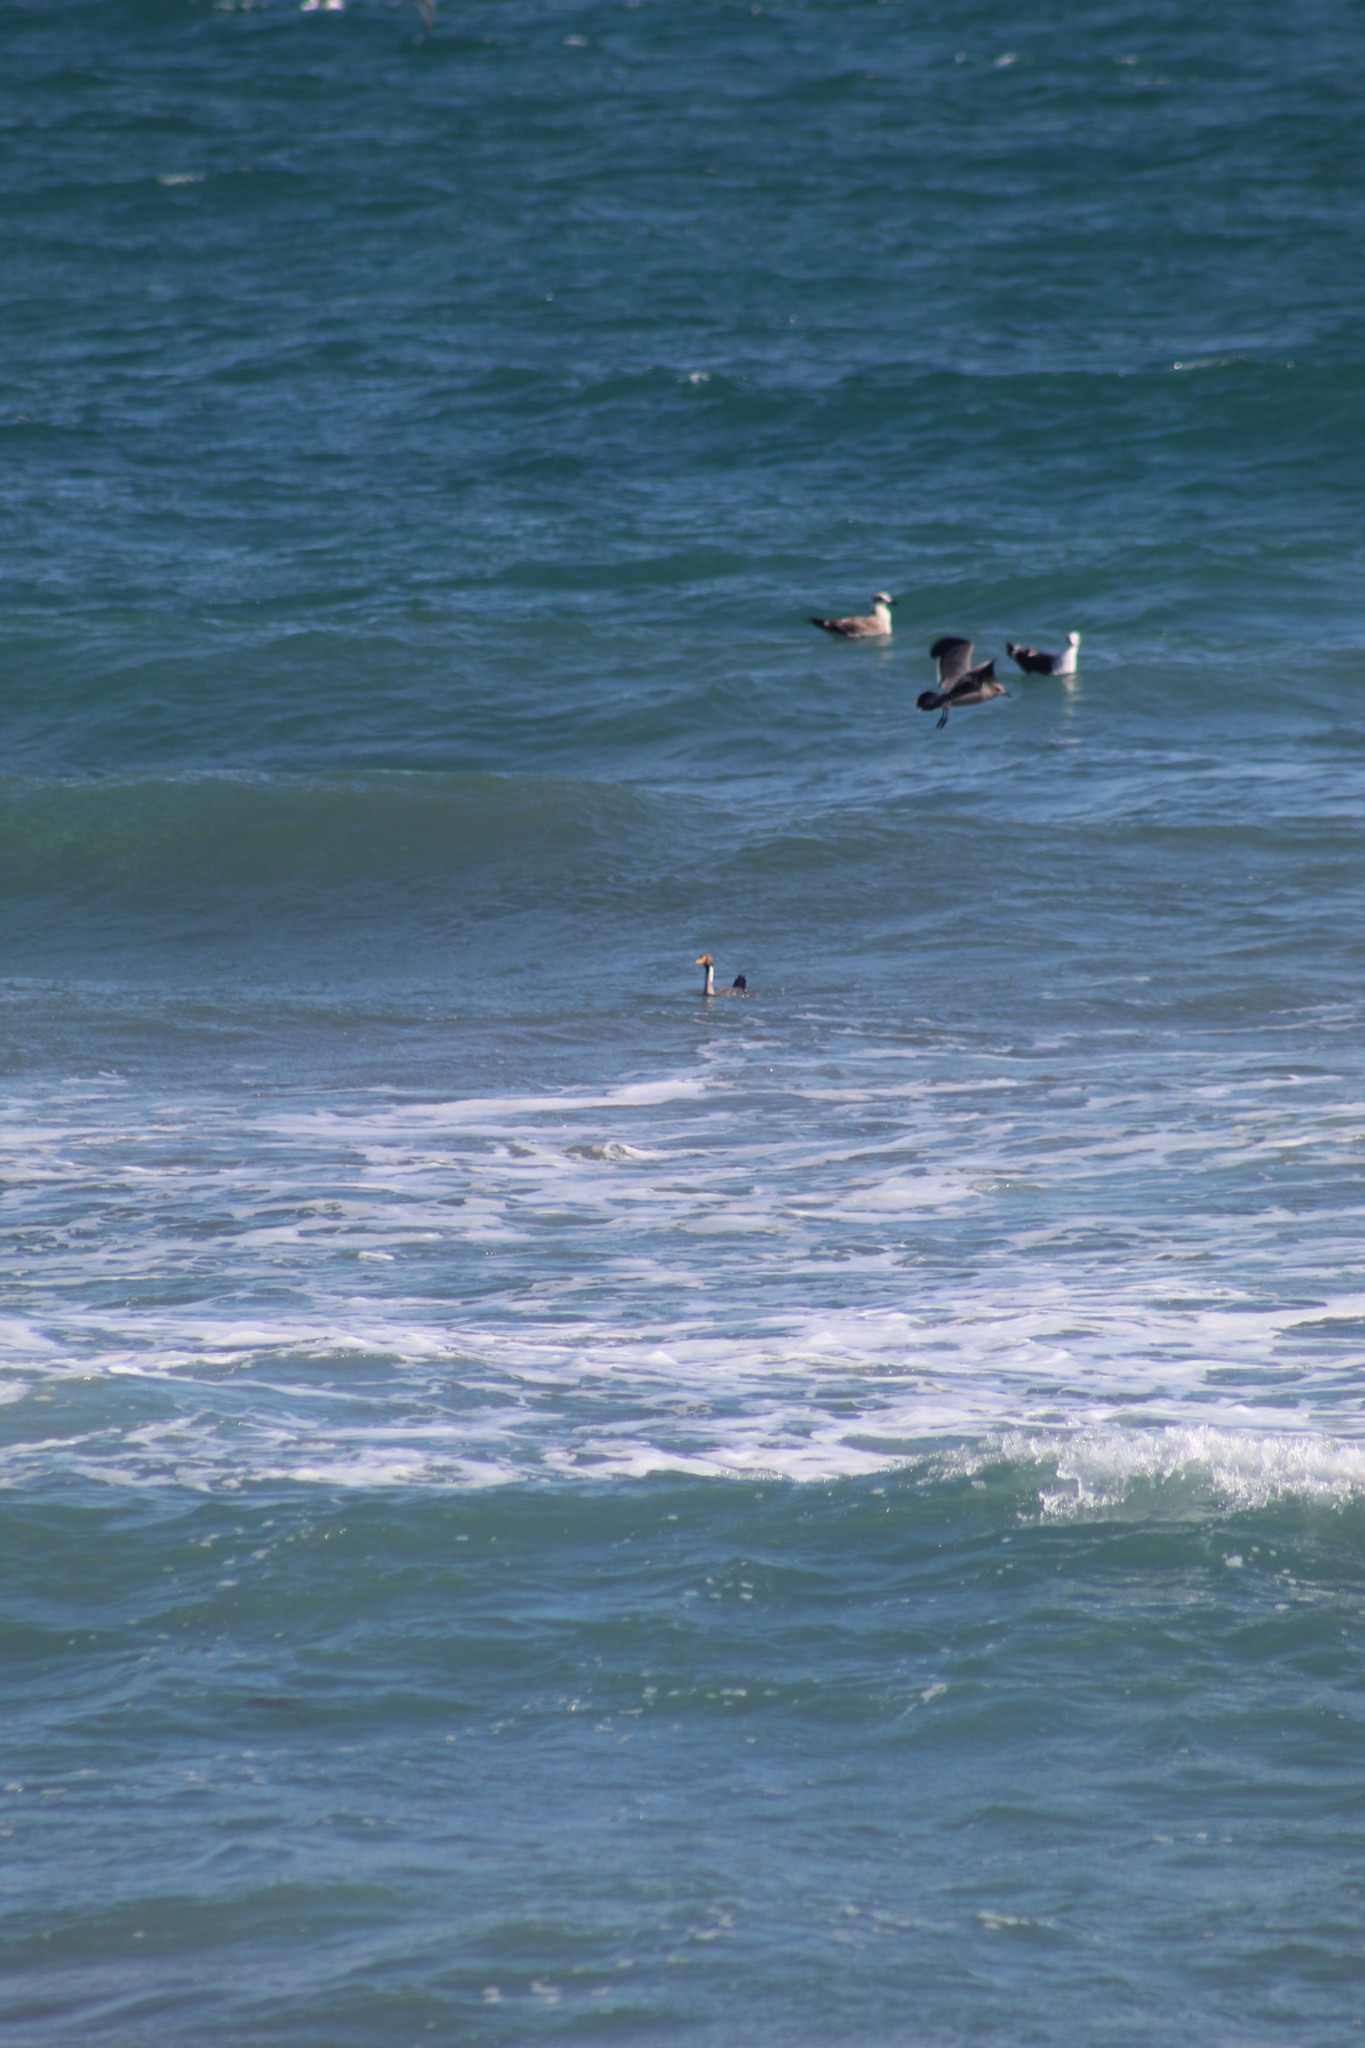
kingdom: Animalia
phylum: Chordata
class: Aves
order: Suliformes
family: Phalacrocoracidae
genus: Phalacrocorax
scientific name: Phalacrocorax gaimardi
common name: Red-legged cormorant
